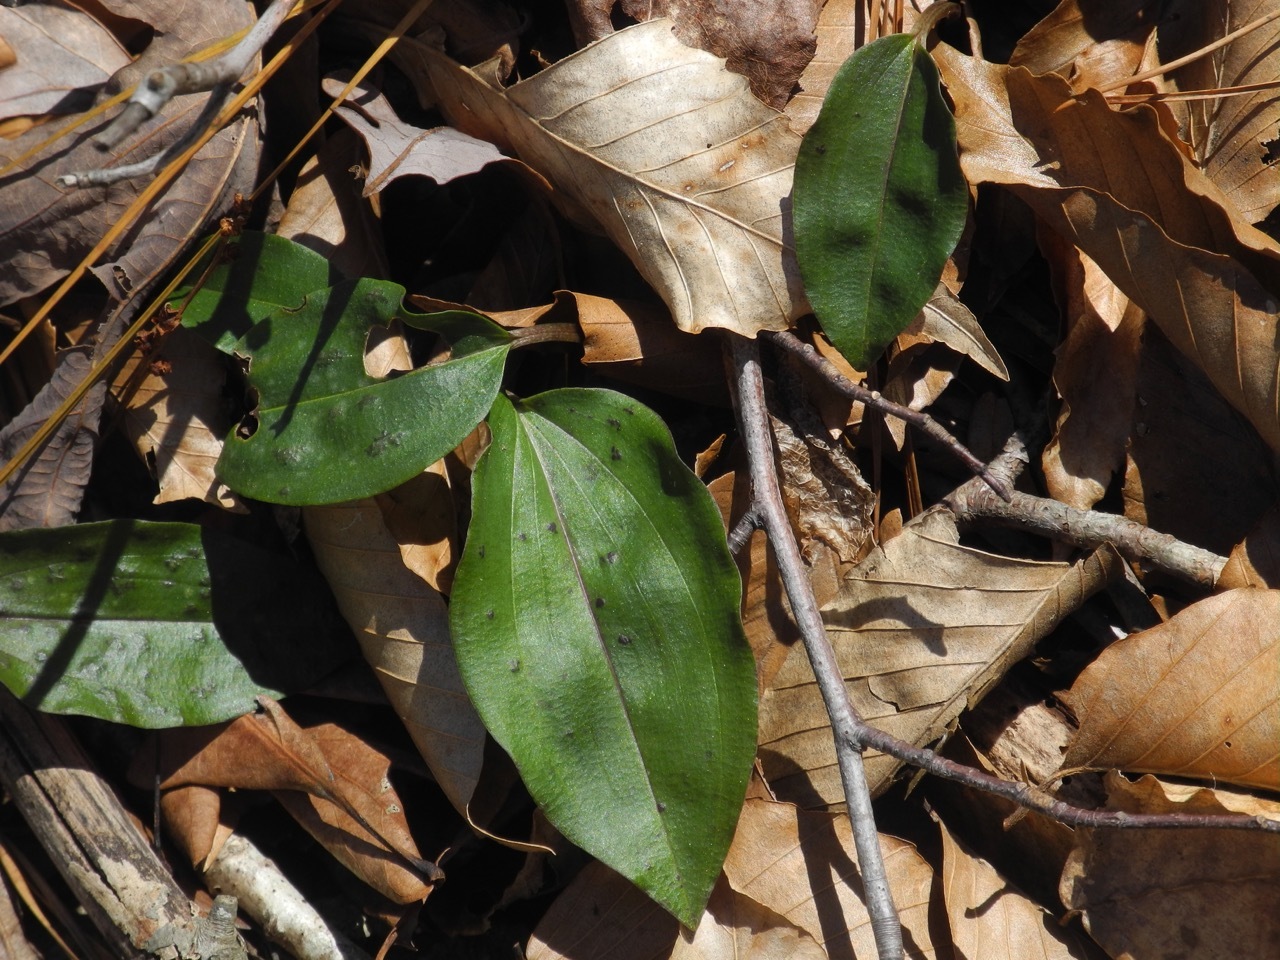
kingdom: Plantae
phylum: Tracheophyta
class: Liliopsida
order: Asparagales
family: Orchidaceae
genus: Tipularia
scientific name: Tipularia discolor
